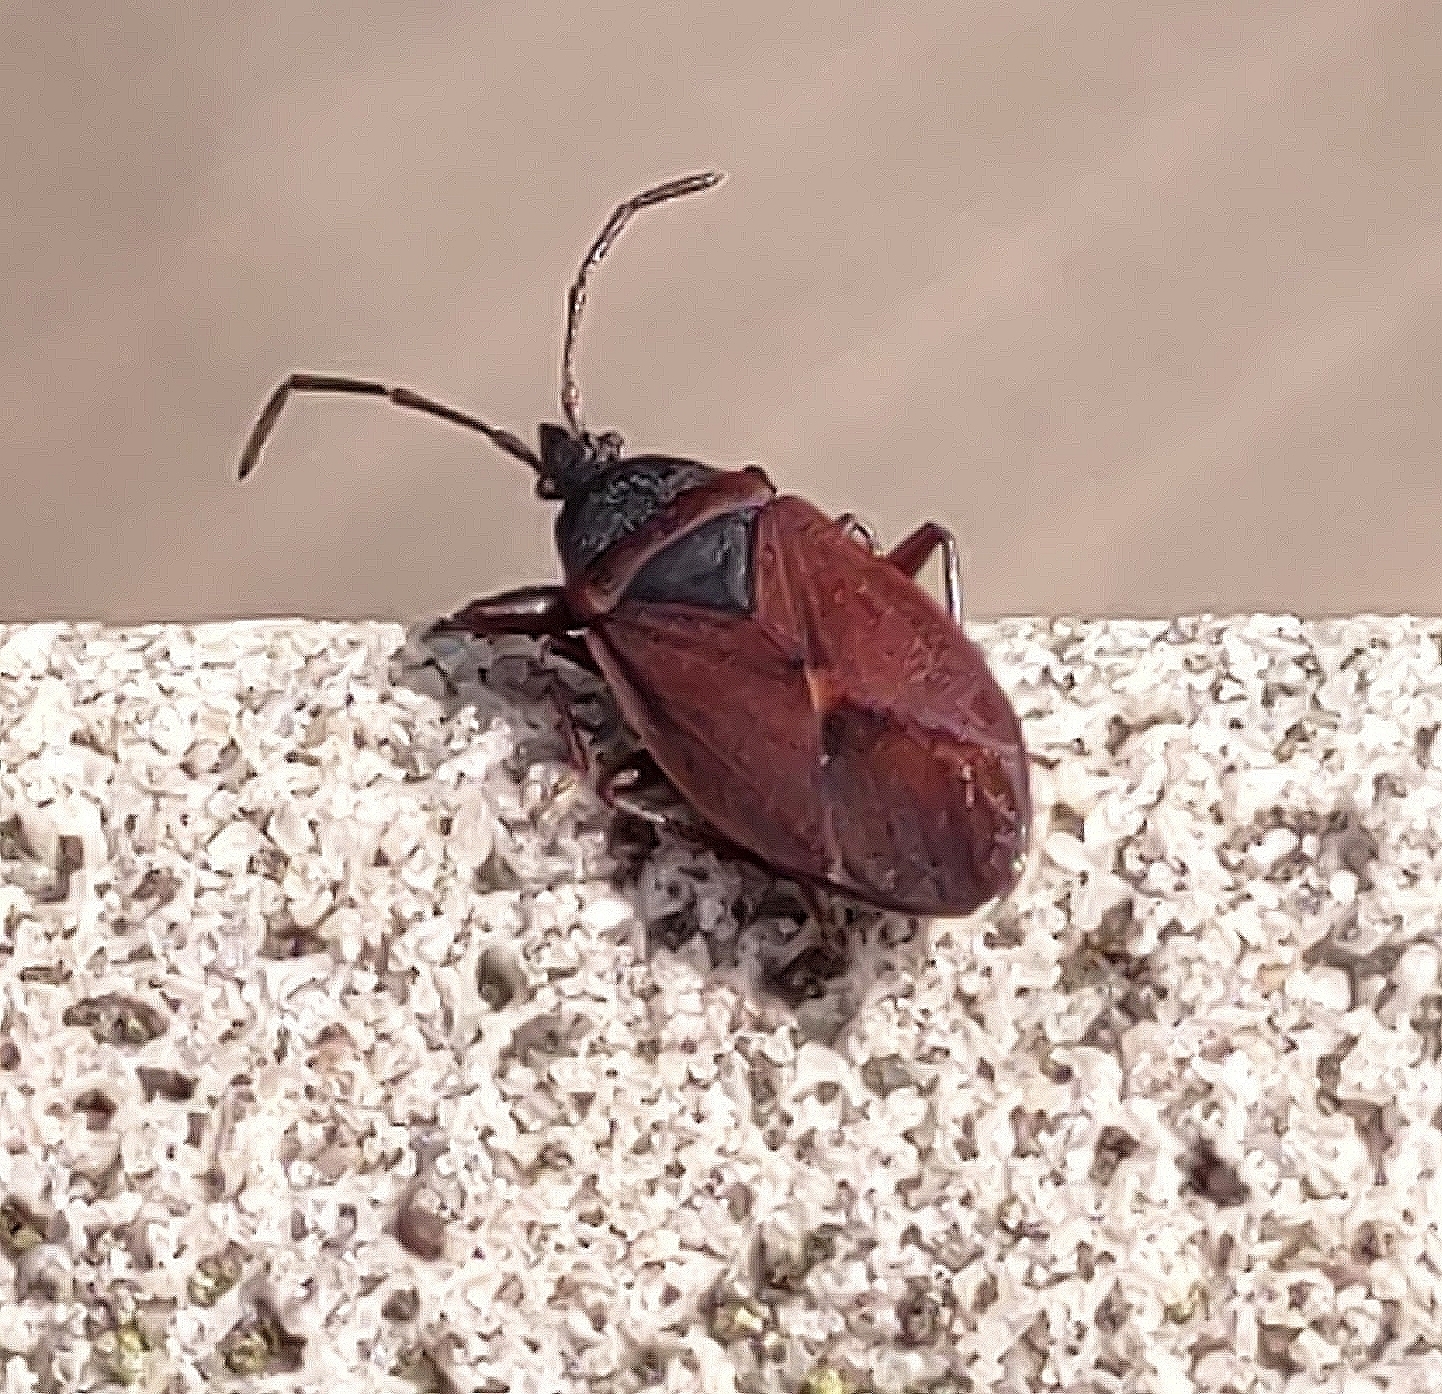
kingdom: Animalia
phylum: Arthropoda
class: Insecta
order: Hemiptera
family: Rhyparochromidae
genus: Gastrodes
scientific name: Gastrodes grossipes
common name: Pine cone bug
